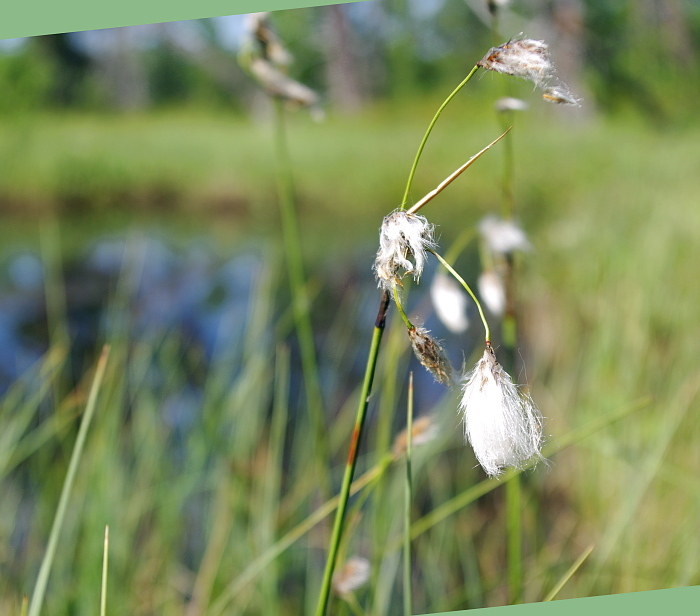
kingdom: Plantae
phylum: Tracheophyta
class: Liliopsida
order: Poales
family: Cyperaceae
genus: Eriophorum
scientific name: Eriophorum angustifolium
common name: Common cottongrass
